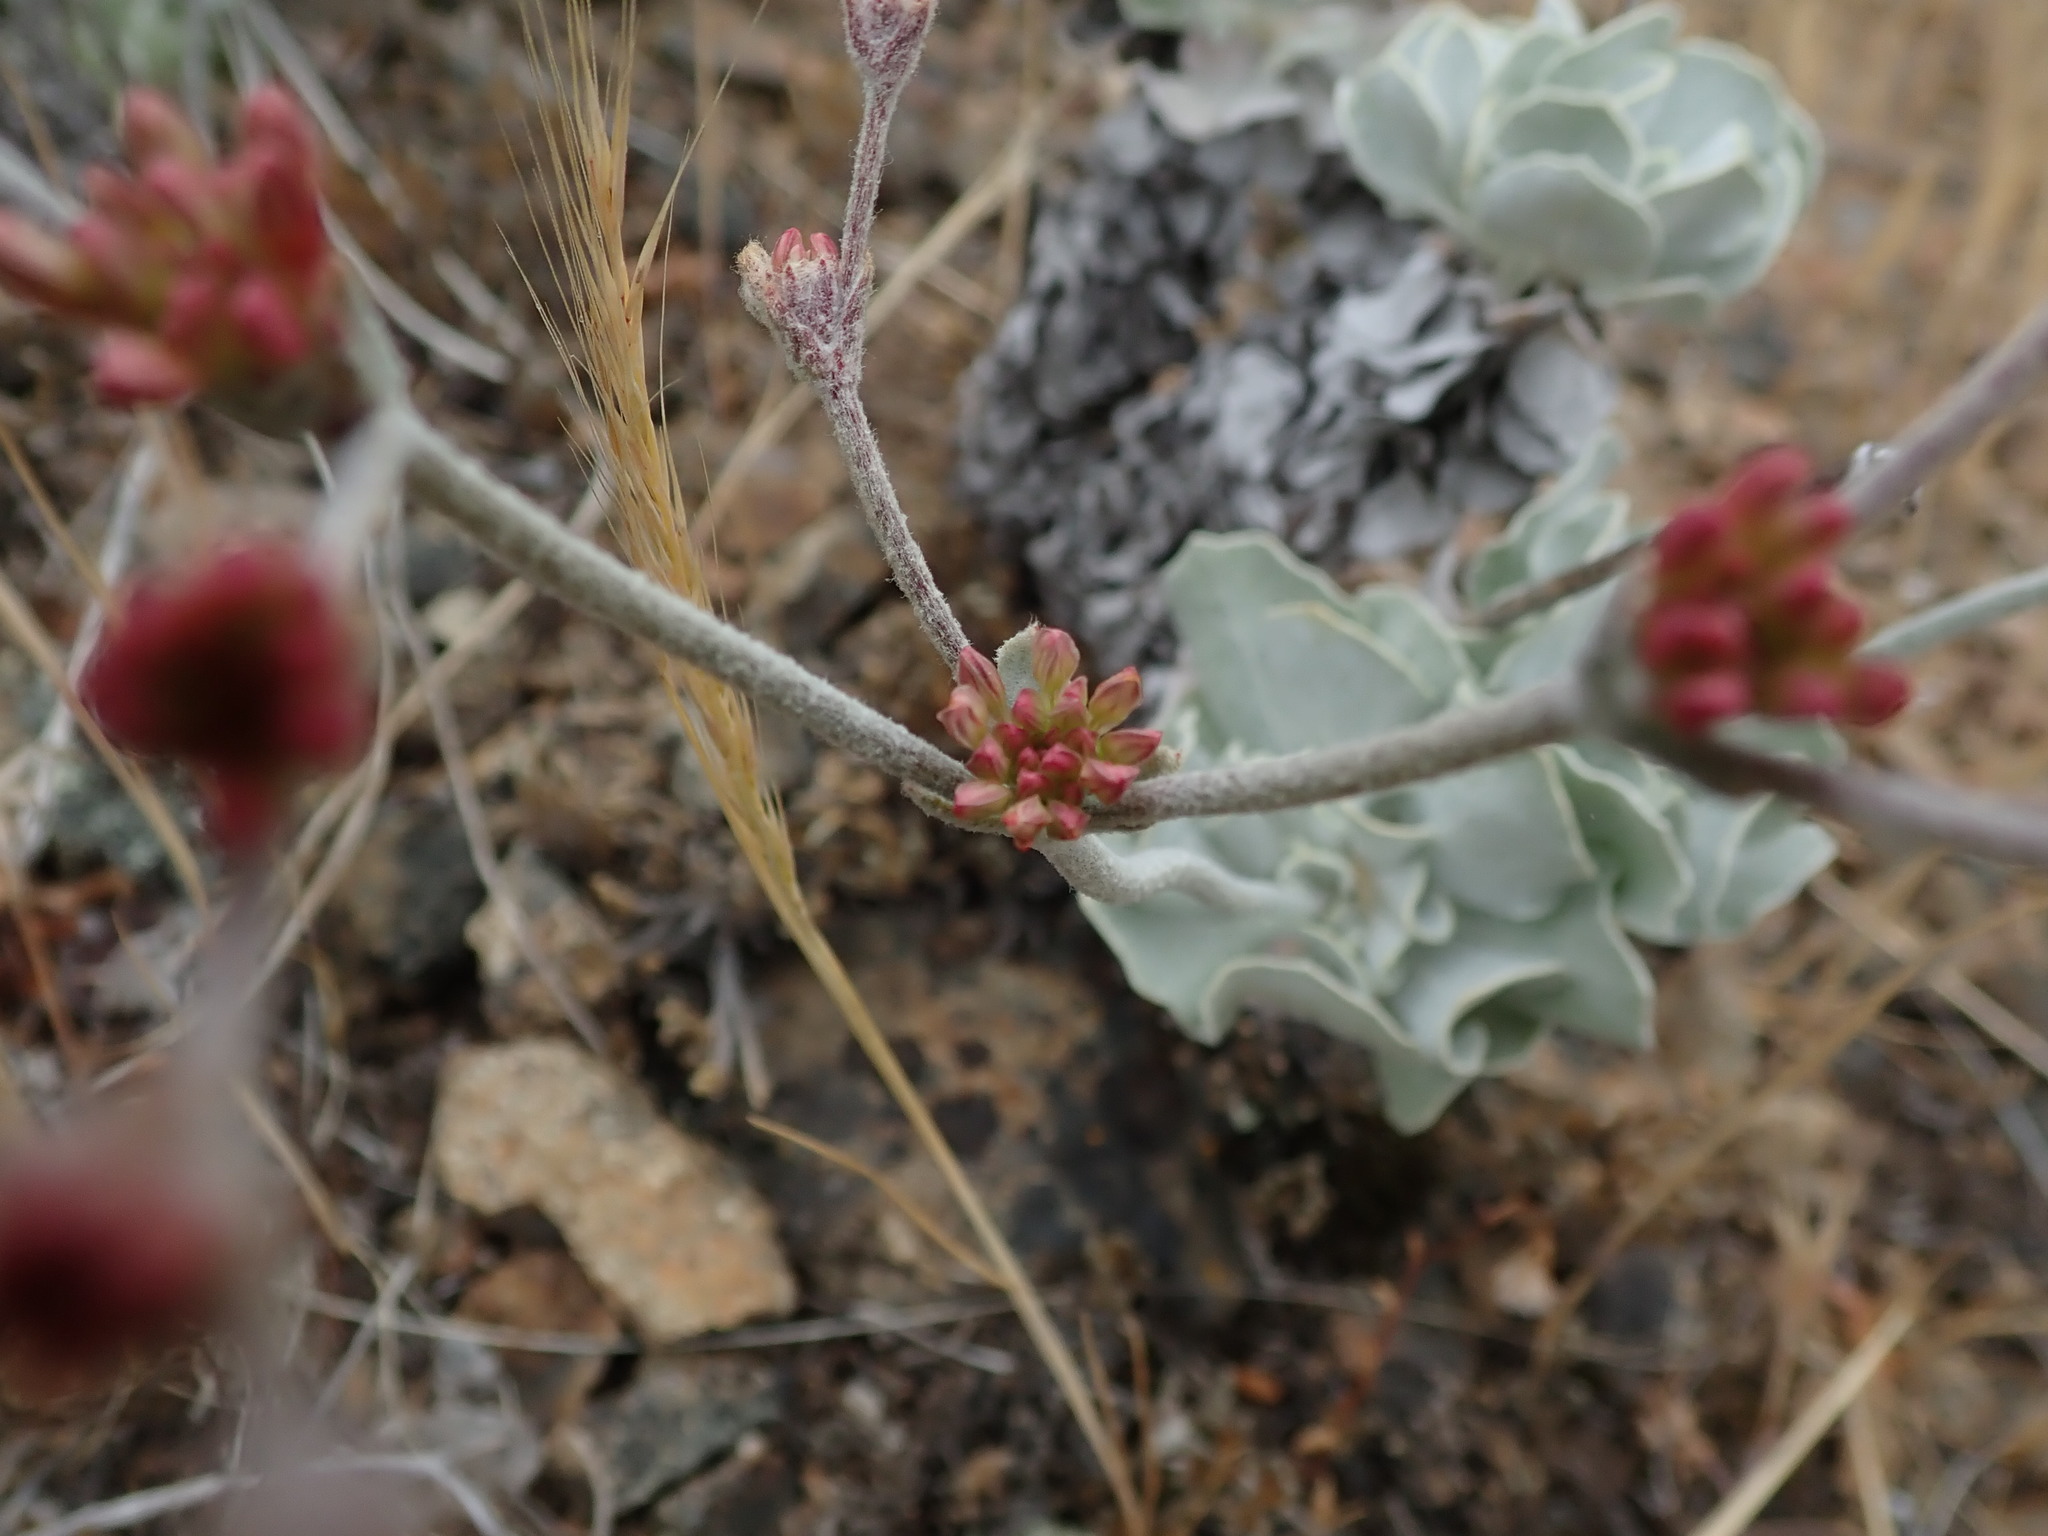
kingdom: Plantae
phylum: Tracheophyta
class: Magnoliopsida
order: Caryophyllales
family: Polygonaceae
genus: Eriogonum
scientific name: Eriogonum saxatile
